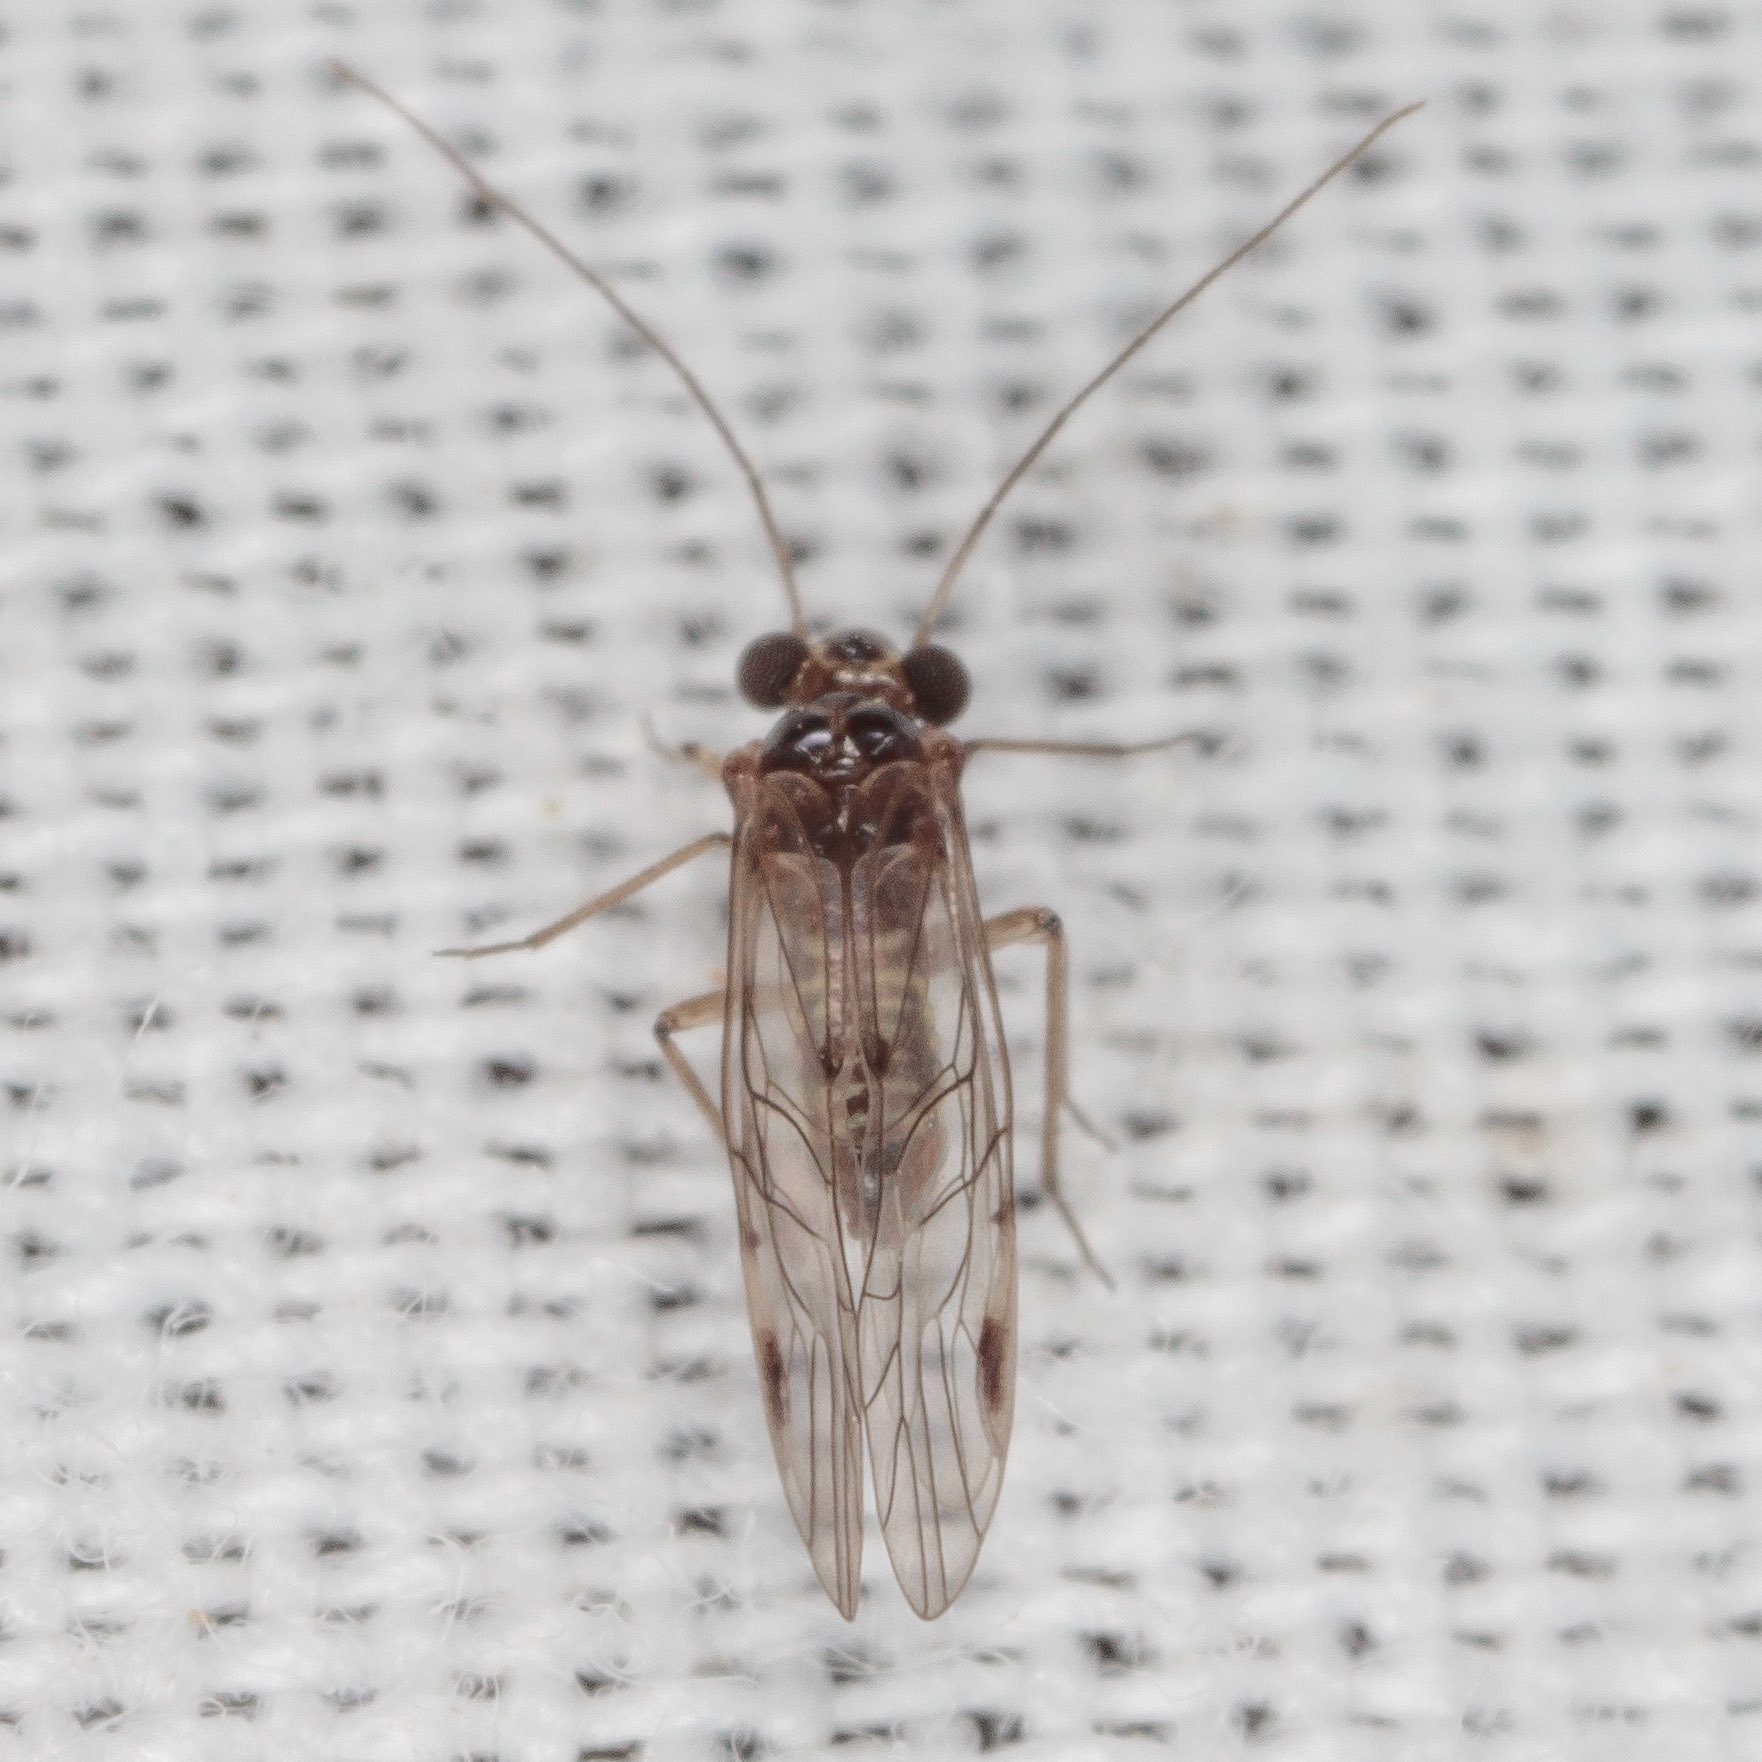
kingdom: Animalia
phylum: Arthropoda
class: Insecta
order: Psocodea
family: Psocidae
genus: Blaste
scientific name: Blaste quieta
